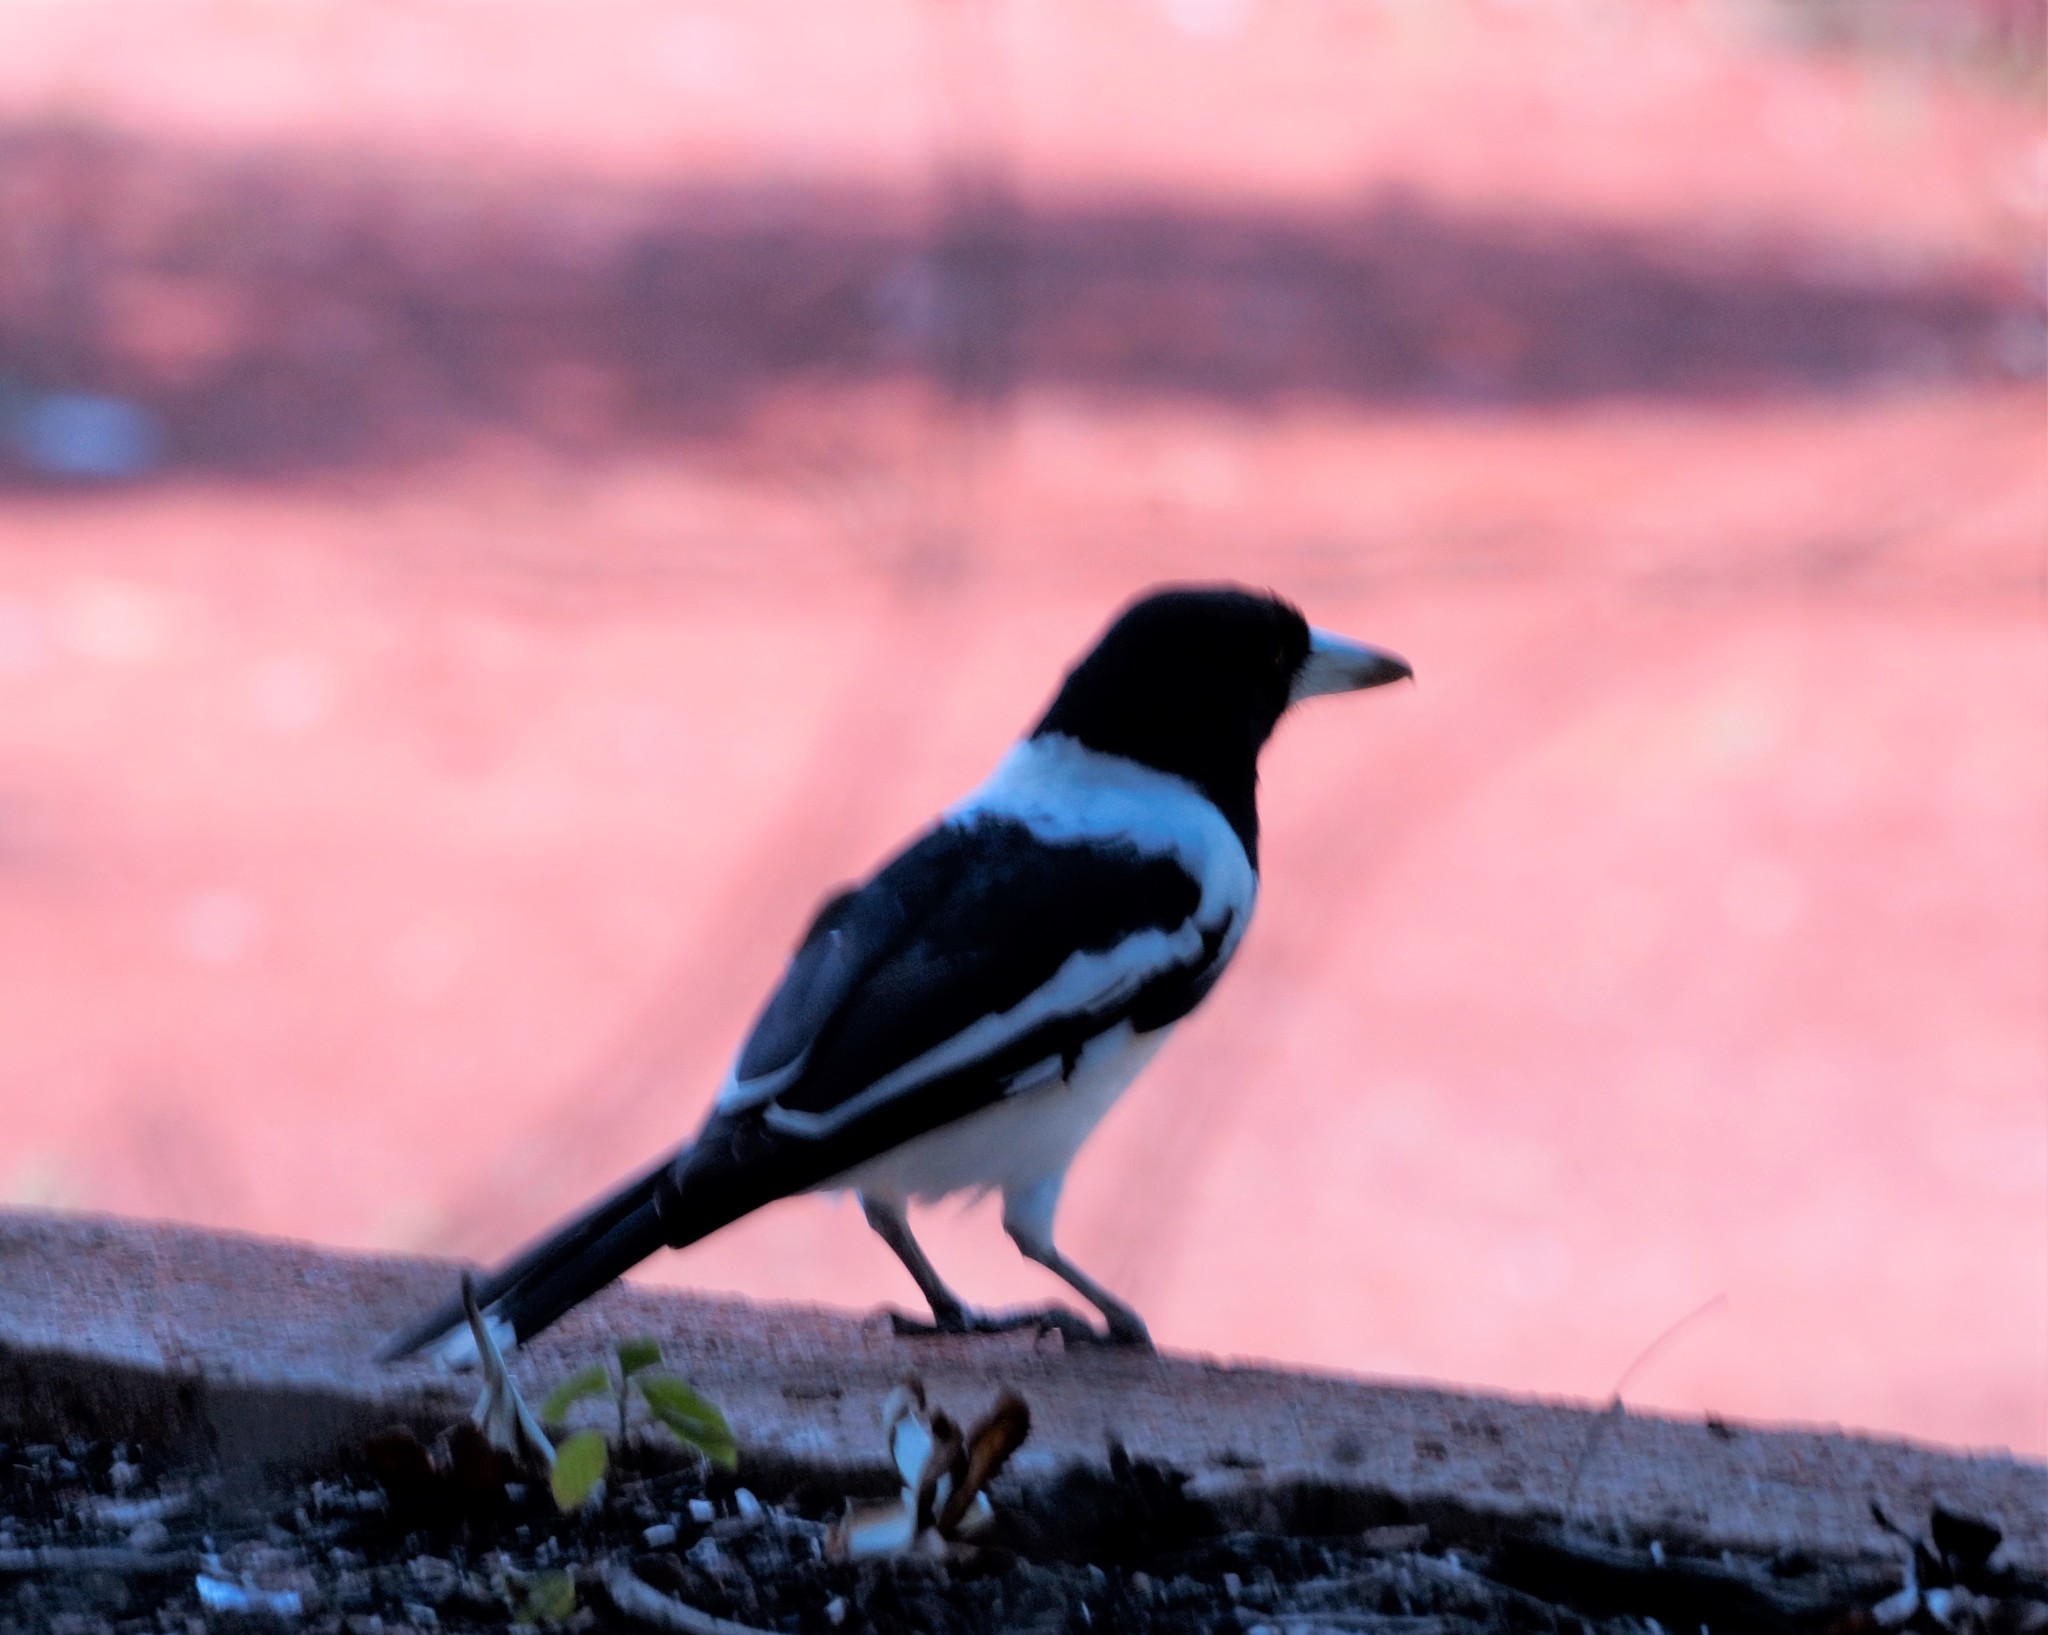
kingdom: Animalia
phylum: Chordata
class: Aves
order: Passeriformes
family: Cracticidae
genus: Cracticus
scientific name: Cracticus nigrogularis
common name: Pied butcherbird
